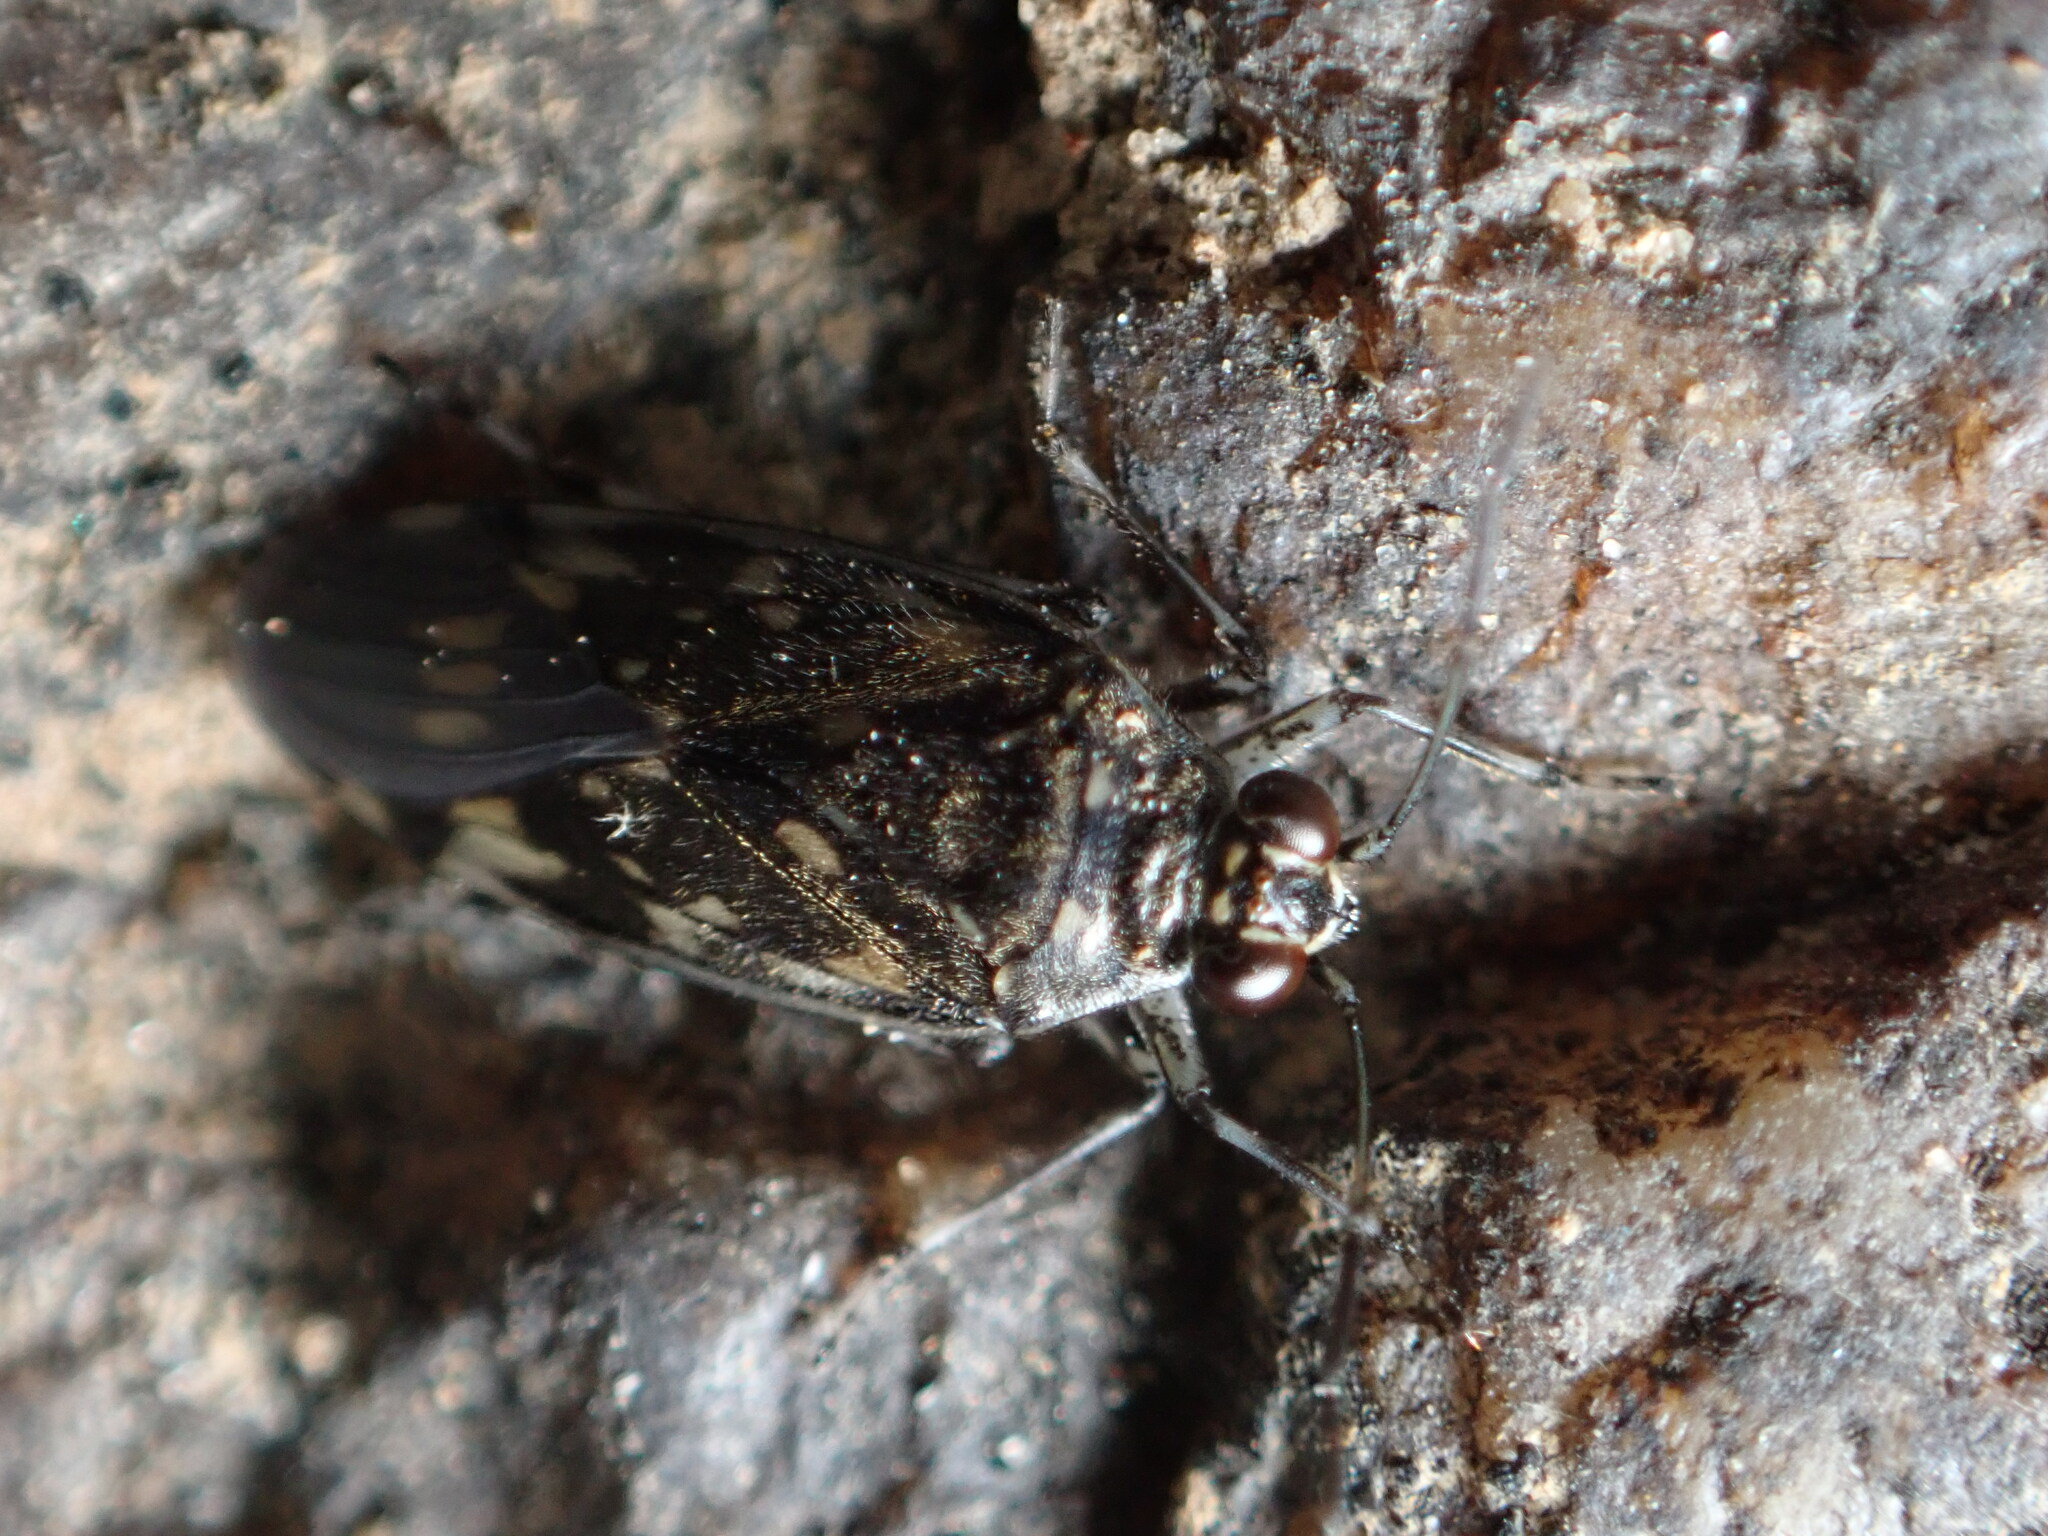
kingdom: Animalia
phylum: Arthropoda
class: Insecta
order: Hemiptera
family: Saldidae
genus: Pentacora
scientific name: Pentacora ligata
